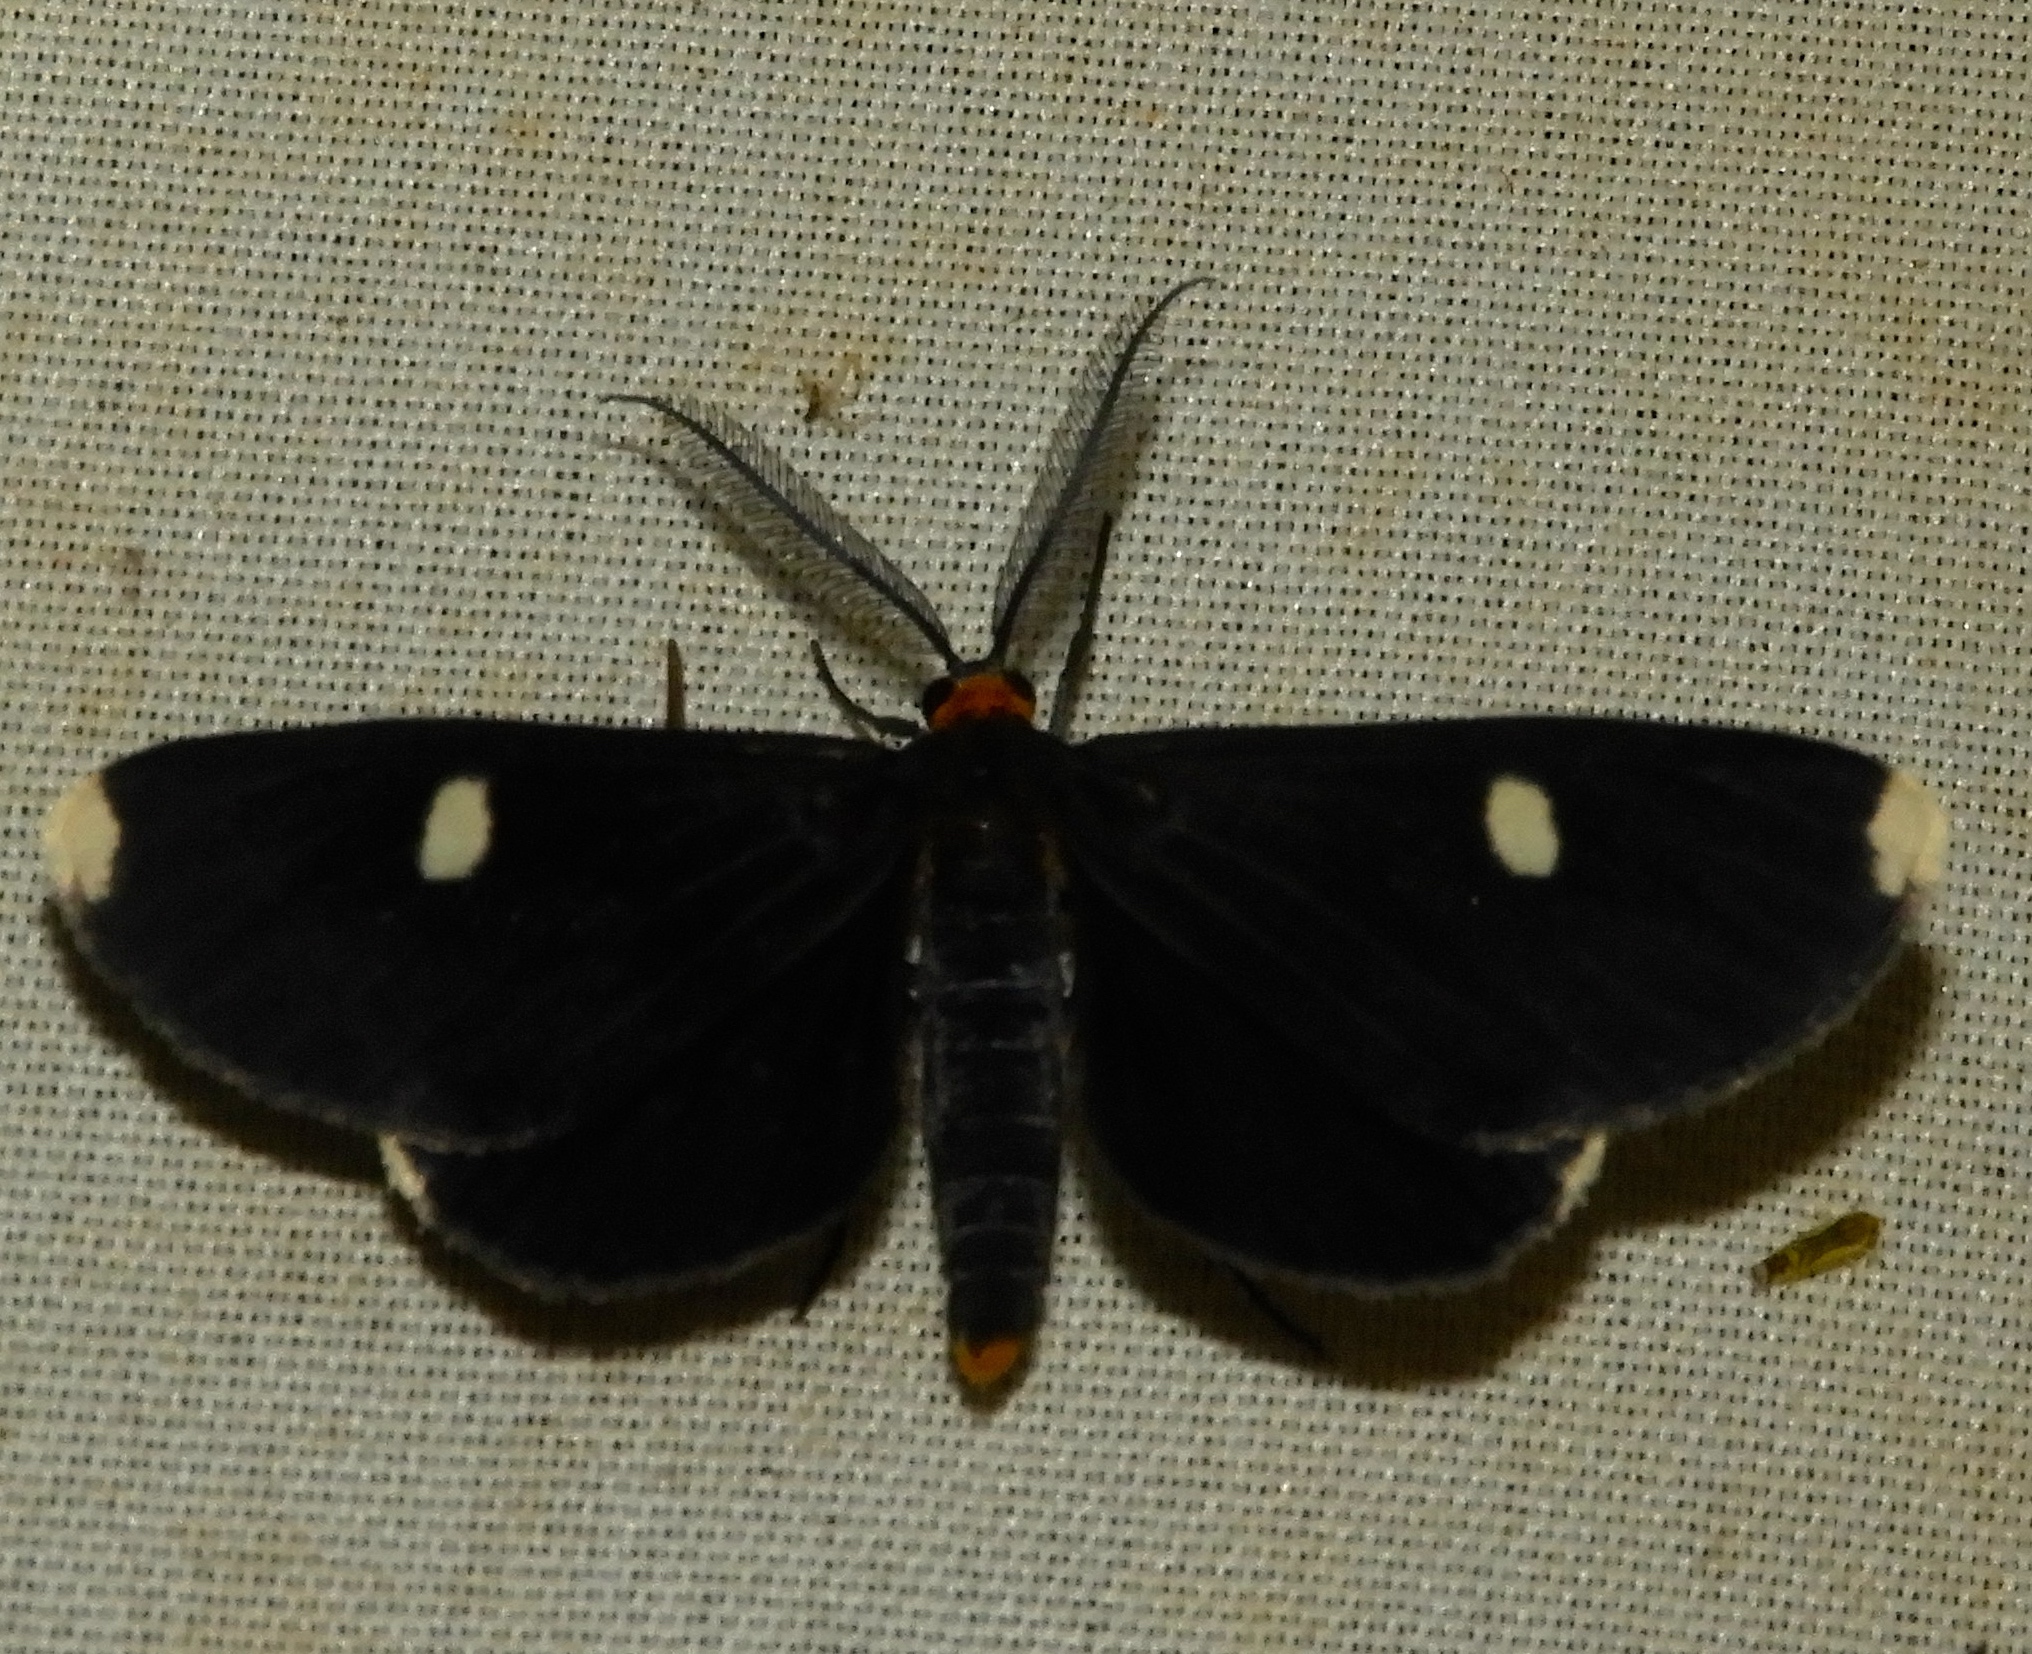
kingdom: Animalia
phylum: Arthropoda
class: Insecta
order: Lepidoptera
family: Geometridae
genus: Melanchroia
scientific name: Melanchroia vazquezae
